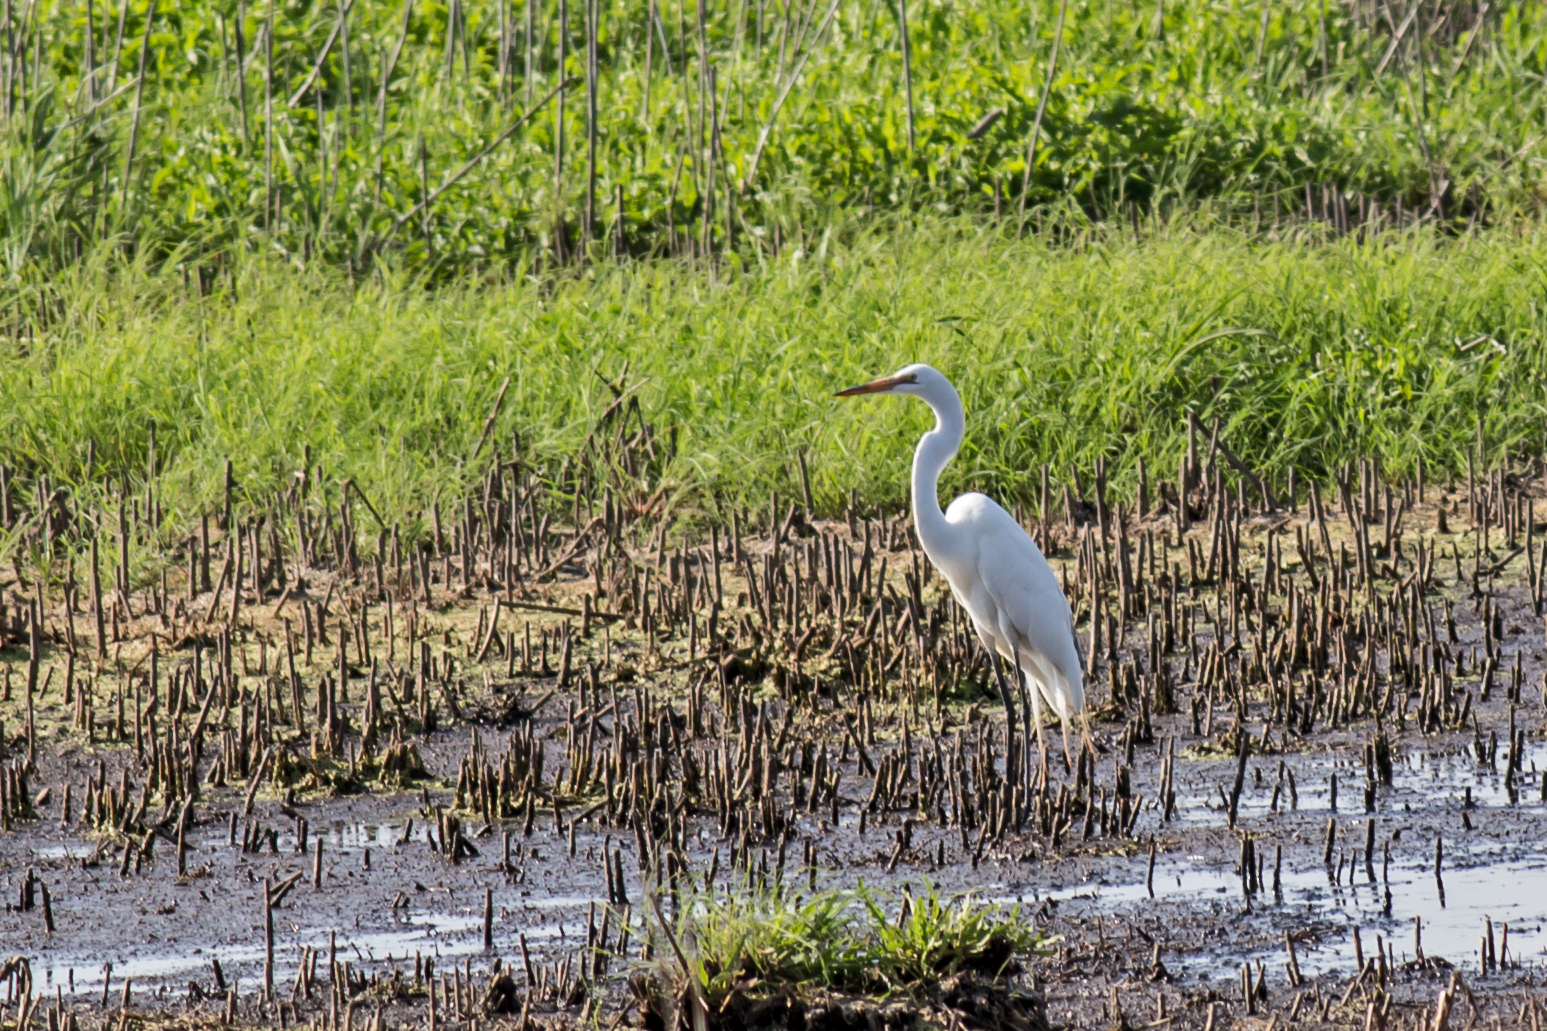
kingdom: Animalia
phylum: Chordata
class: Aves
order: Pelecaniformes
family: Ardeidae
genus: Ardea
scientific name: Ardea alba
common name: Great egret
